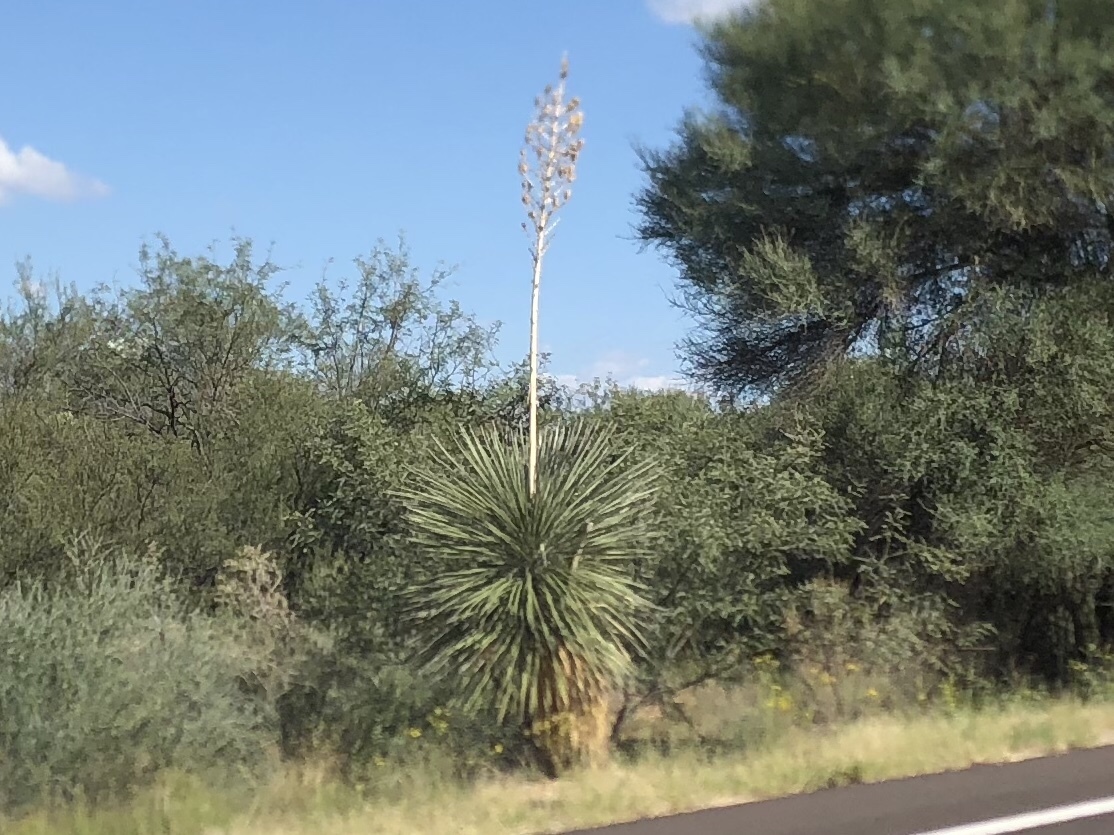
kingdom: Plantae
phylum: Tracheophyta
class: Liliopsida
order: Asparagales
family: Asparagaceae
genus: Yucca
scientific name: Yucca elata
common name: Palmella
